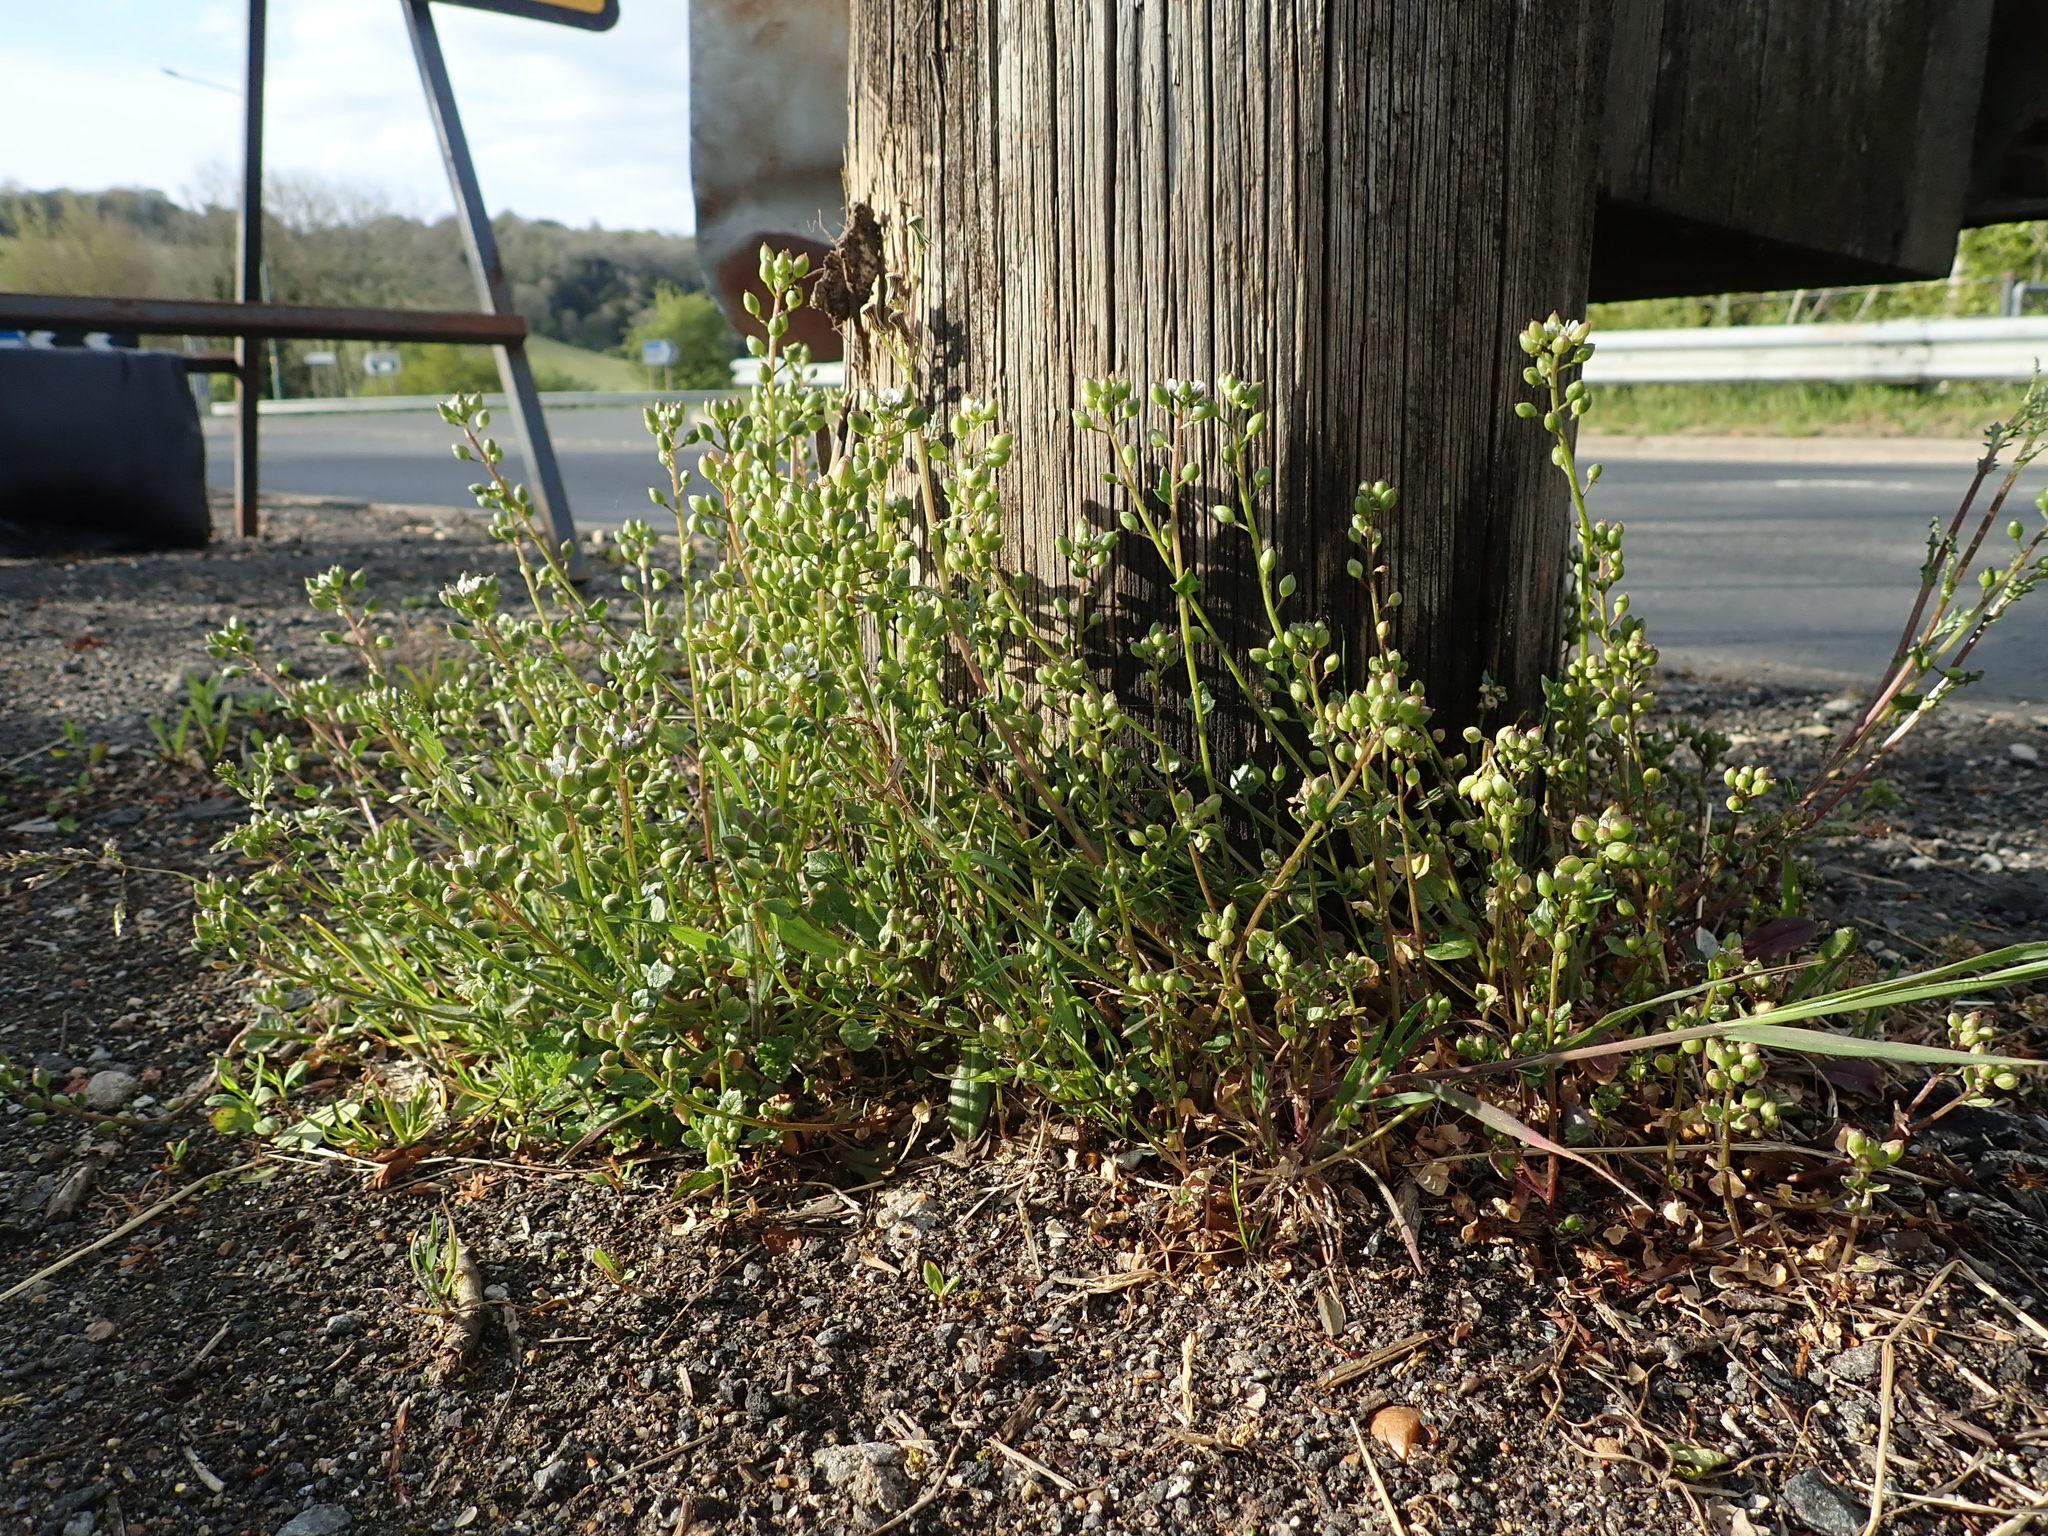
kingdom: Plantae
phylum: Tracheophyta
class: Magnoliopsida
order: Brassicales
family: Brassicaceae
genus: Cochlearia
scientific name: Cochlearia danica
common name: Early scurvygrass
